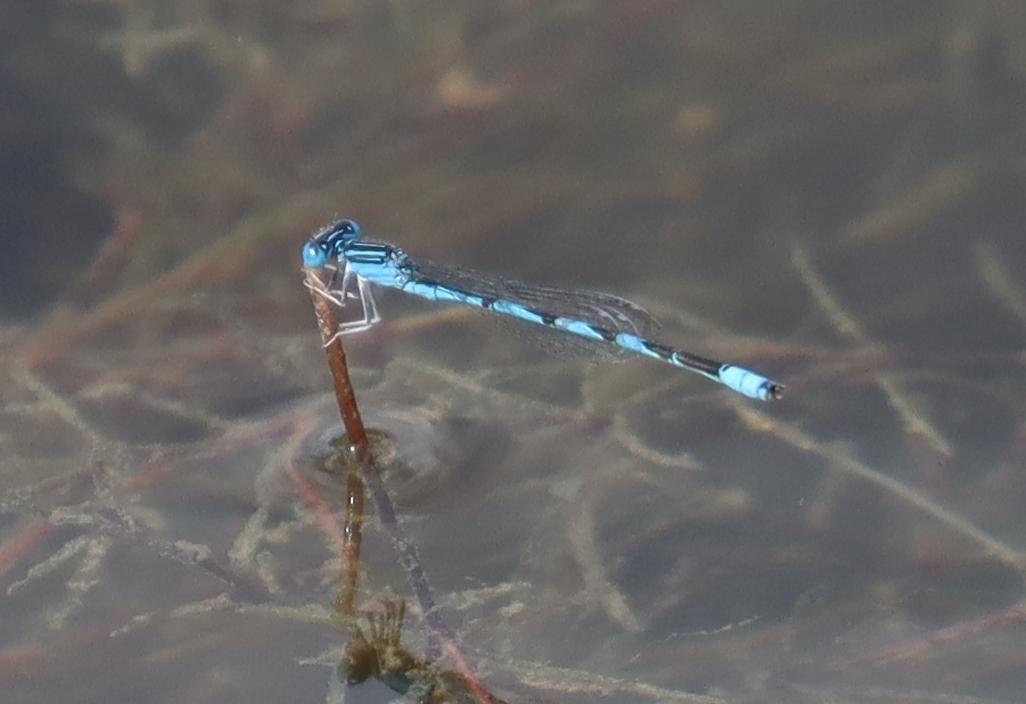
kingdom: Animalia
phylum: Arthropoda
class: Insecta
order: Odonata
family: Coenagrionidae
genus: Enallagma
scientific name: Enallagma basidens
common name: Double-striped bluet
